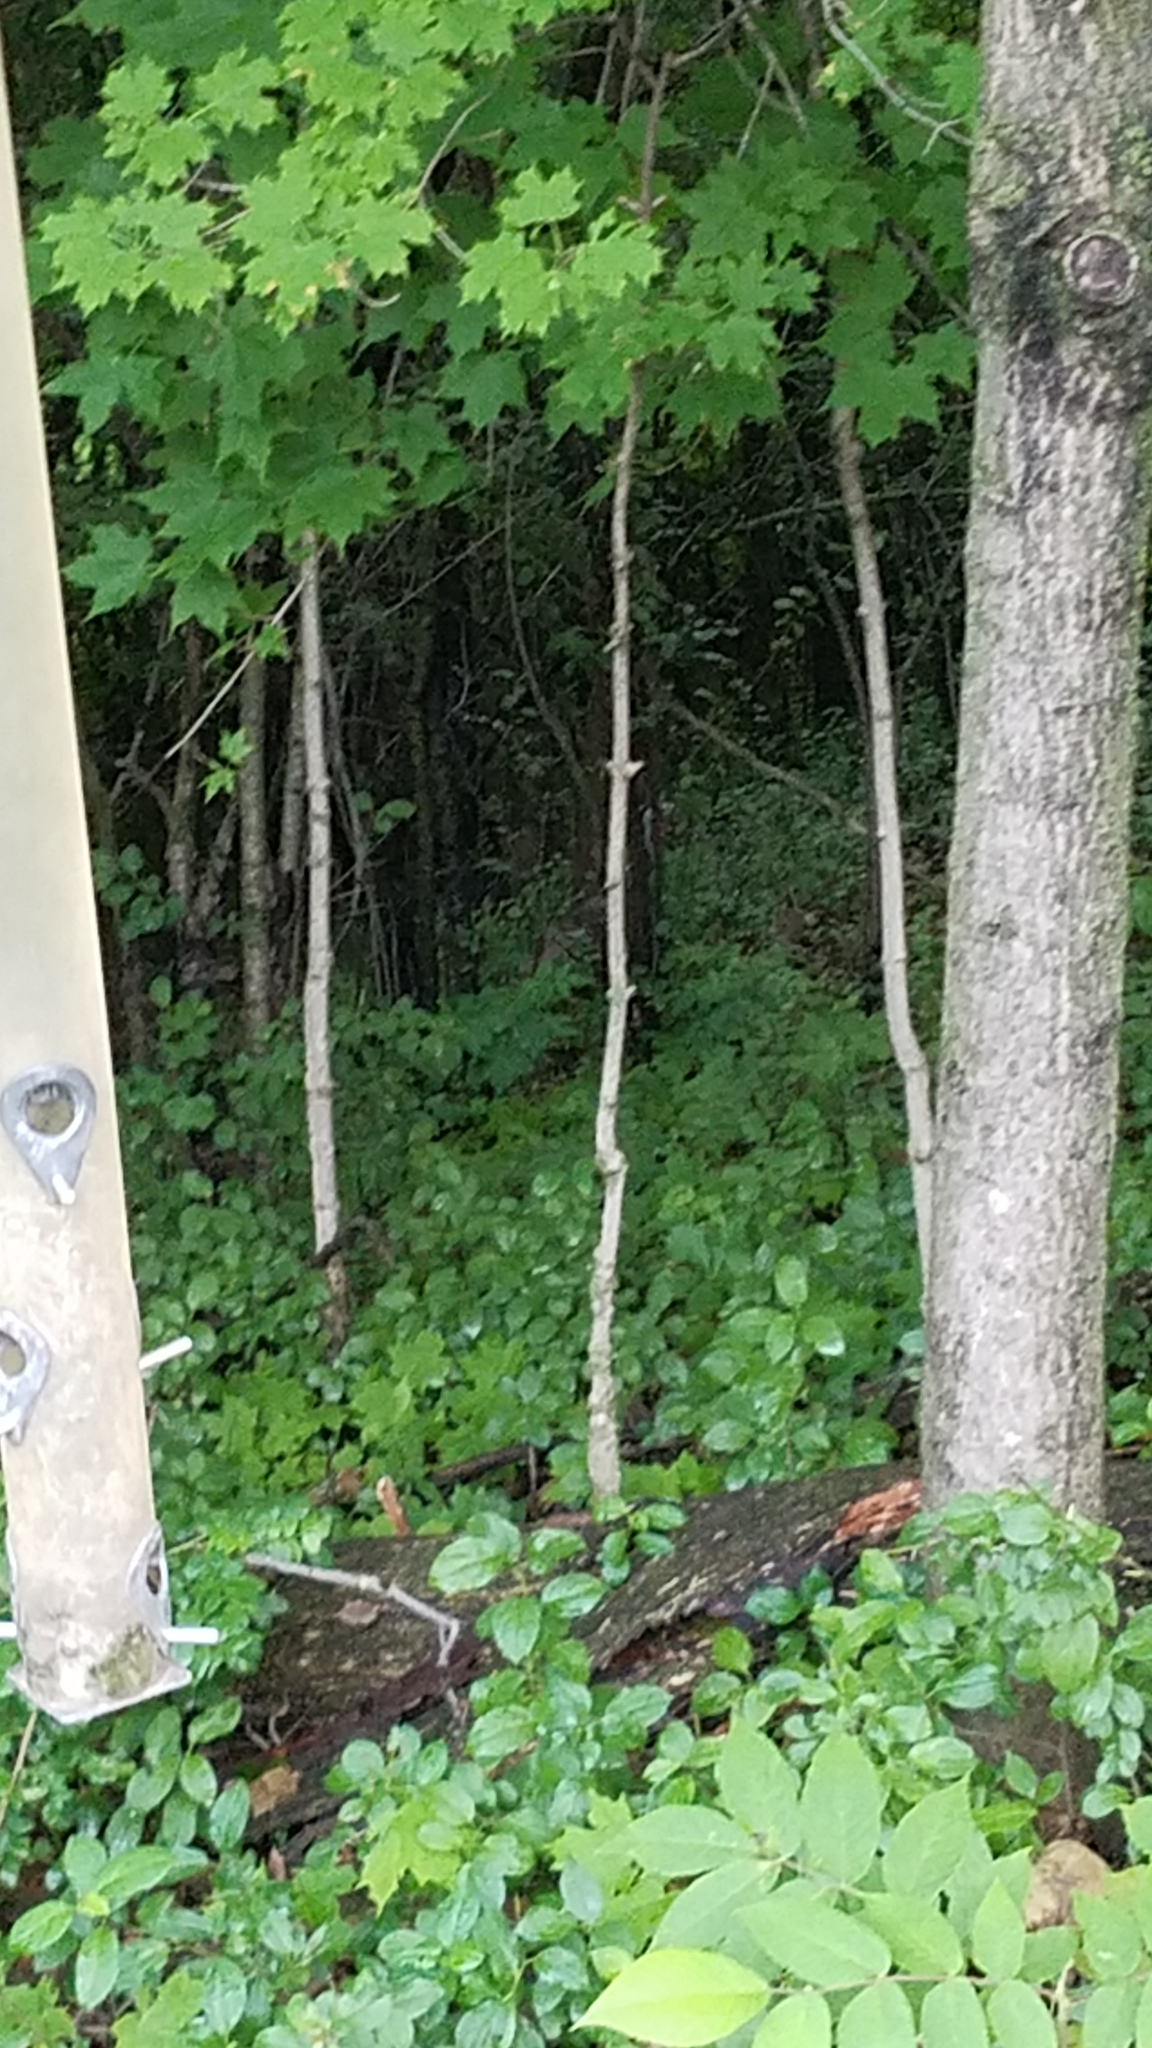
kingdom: Animalia
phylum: Chordata
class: Aves
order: Galliformes
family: Phasianidae
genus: Meleagris
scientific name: Meleagris gallopavo
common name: Wild turkey
